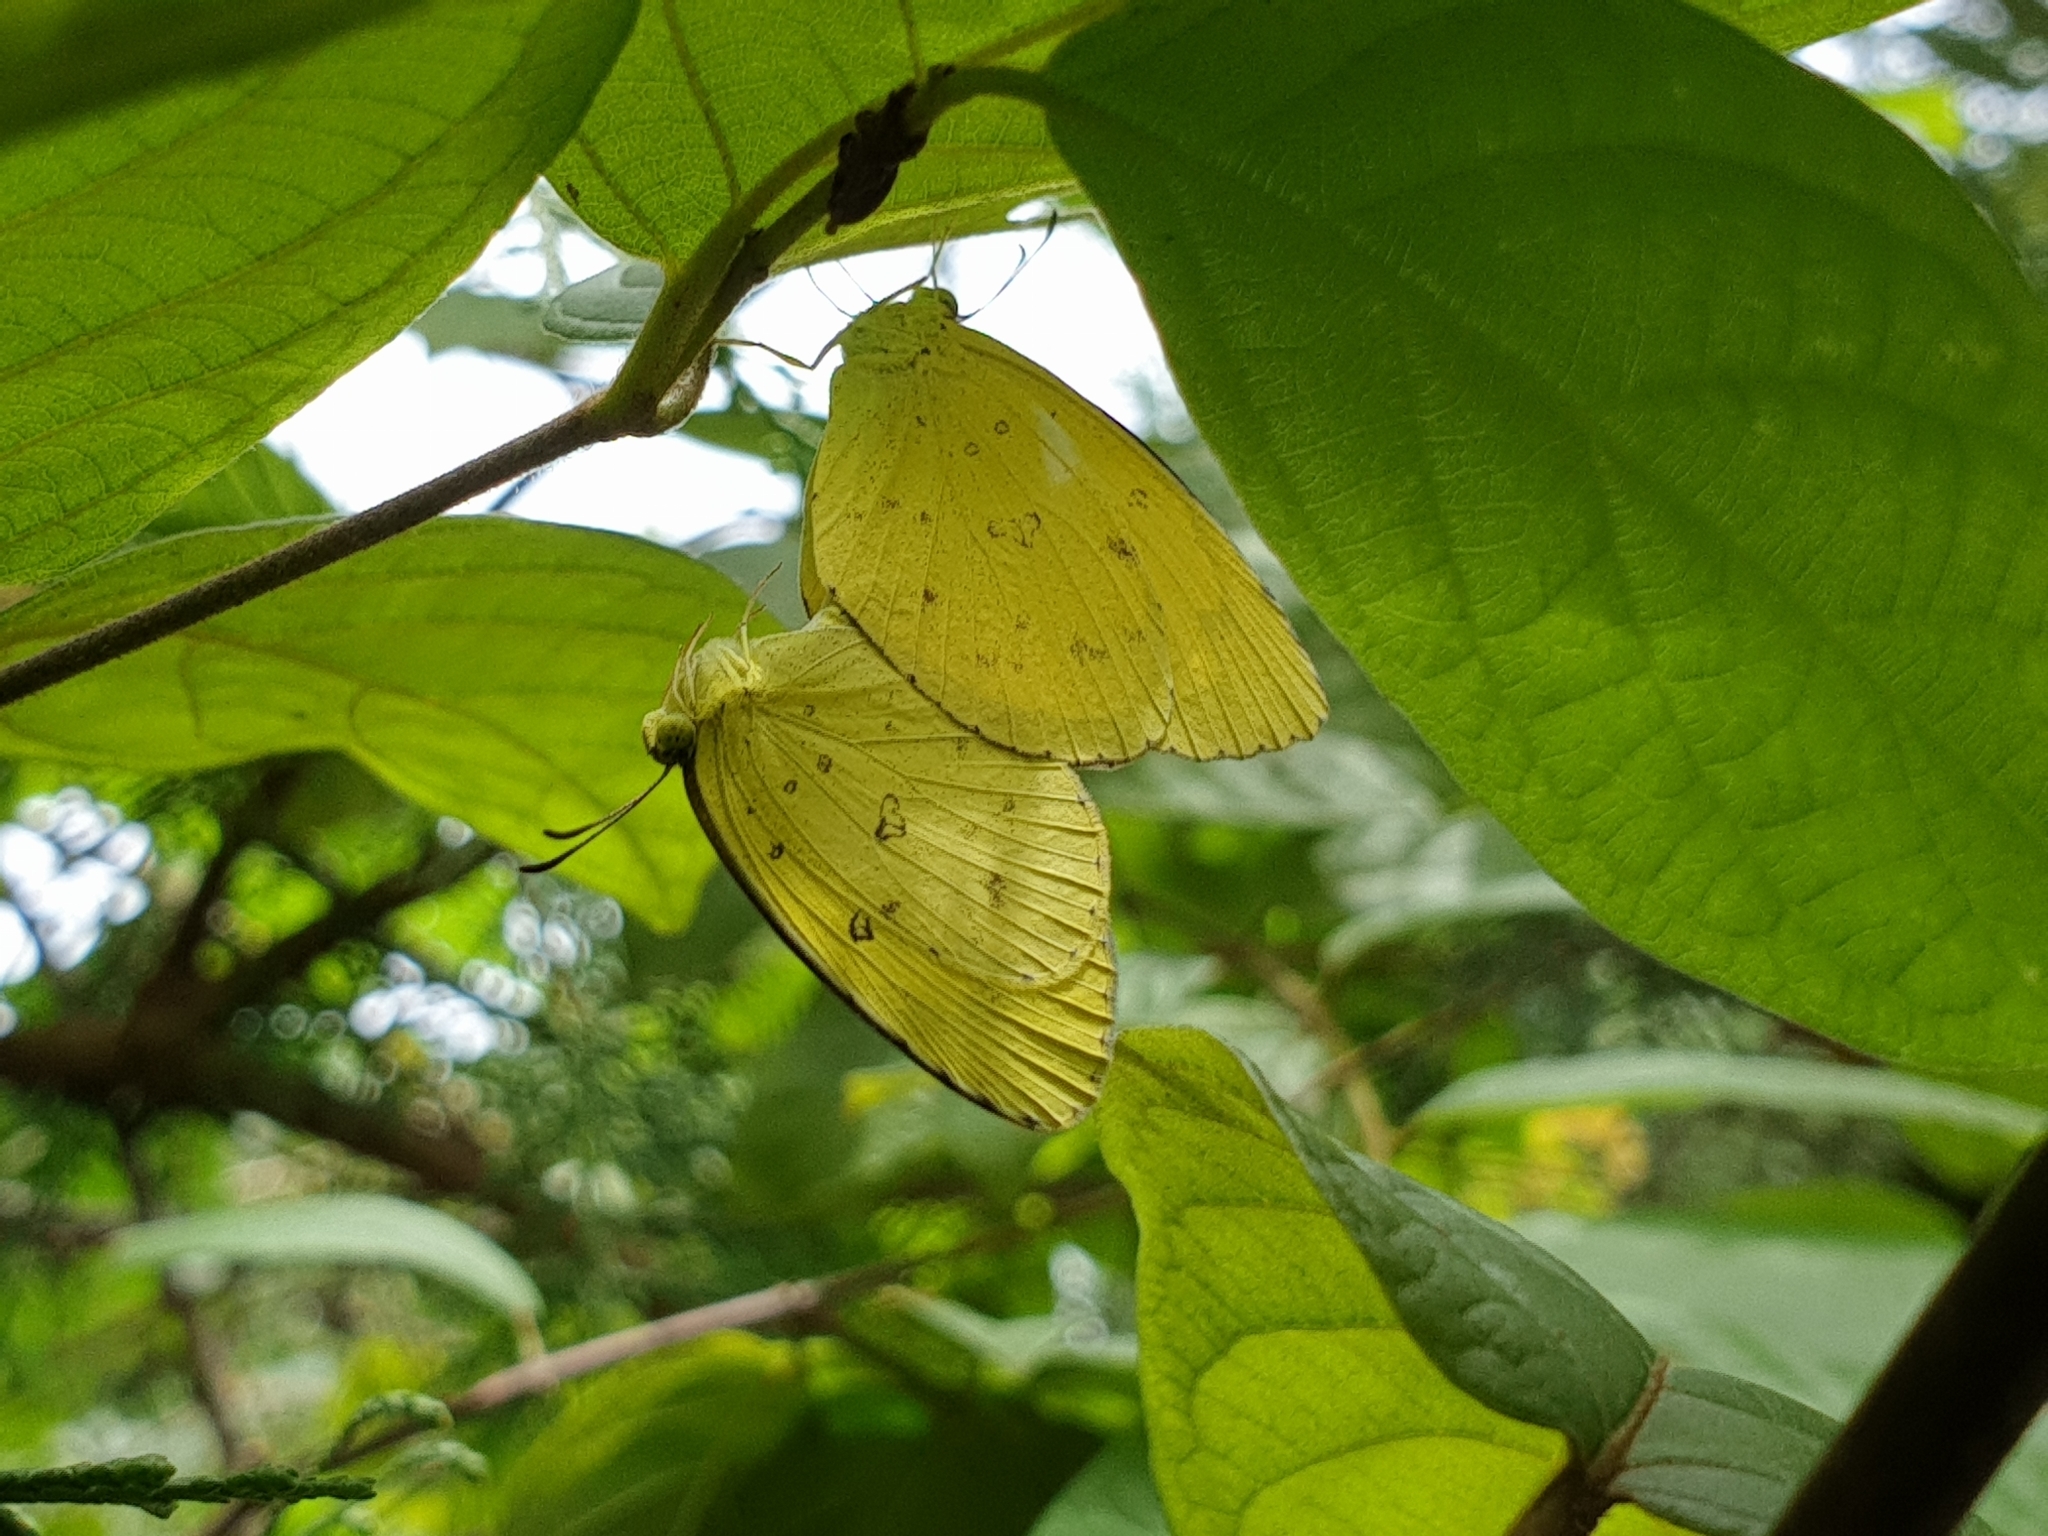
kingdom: Animalia
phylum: Arthropoda
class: Insecta
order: Lepidoptera
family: Pieridae
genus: Eurema
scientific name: Eurema hecabe
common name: Pale grass yellow
